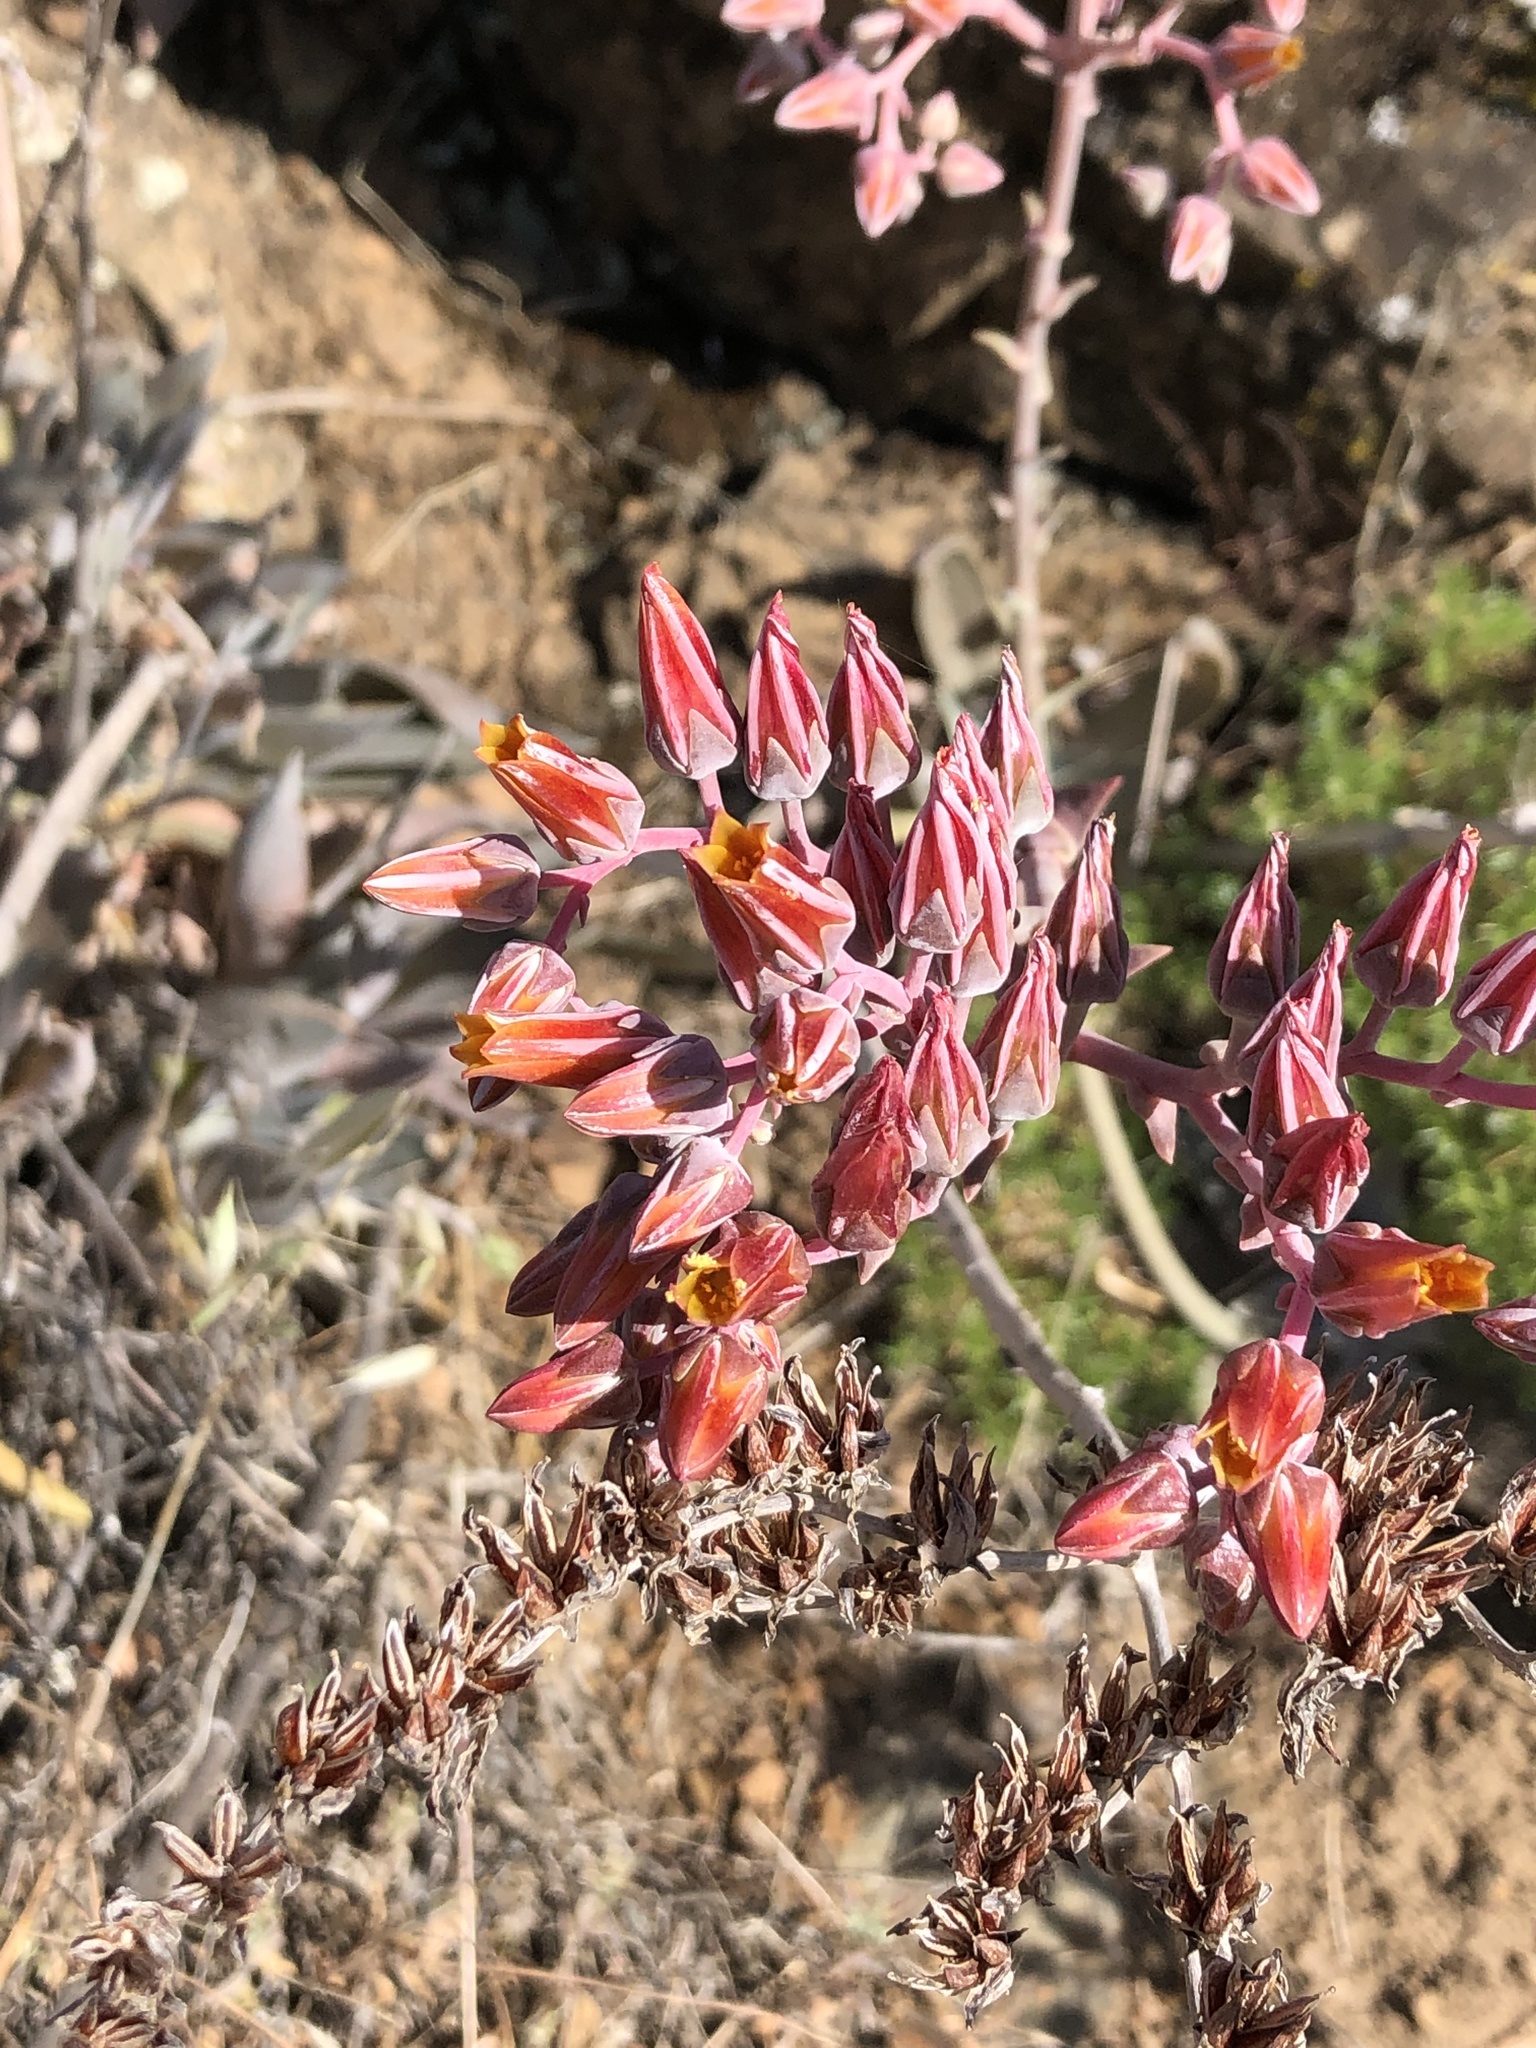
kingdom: Plantae
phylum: Tracheophyta
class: Magnoliopsida
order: Saxifragales
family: Crassulaceae
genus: Dudleya
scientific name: Dudleya lanceolata
